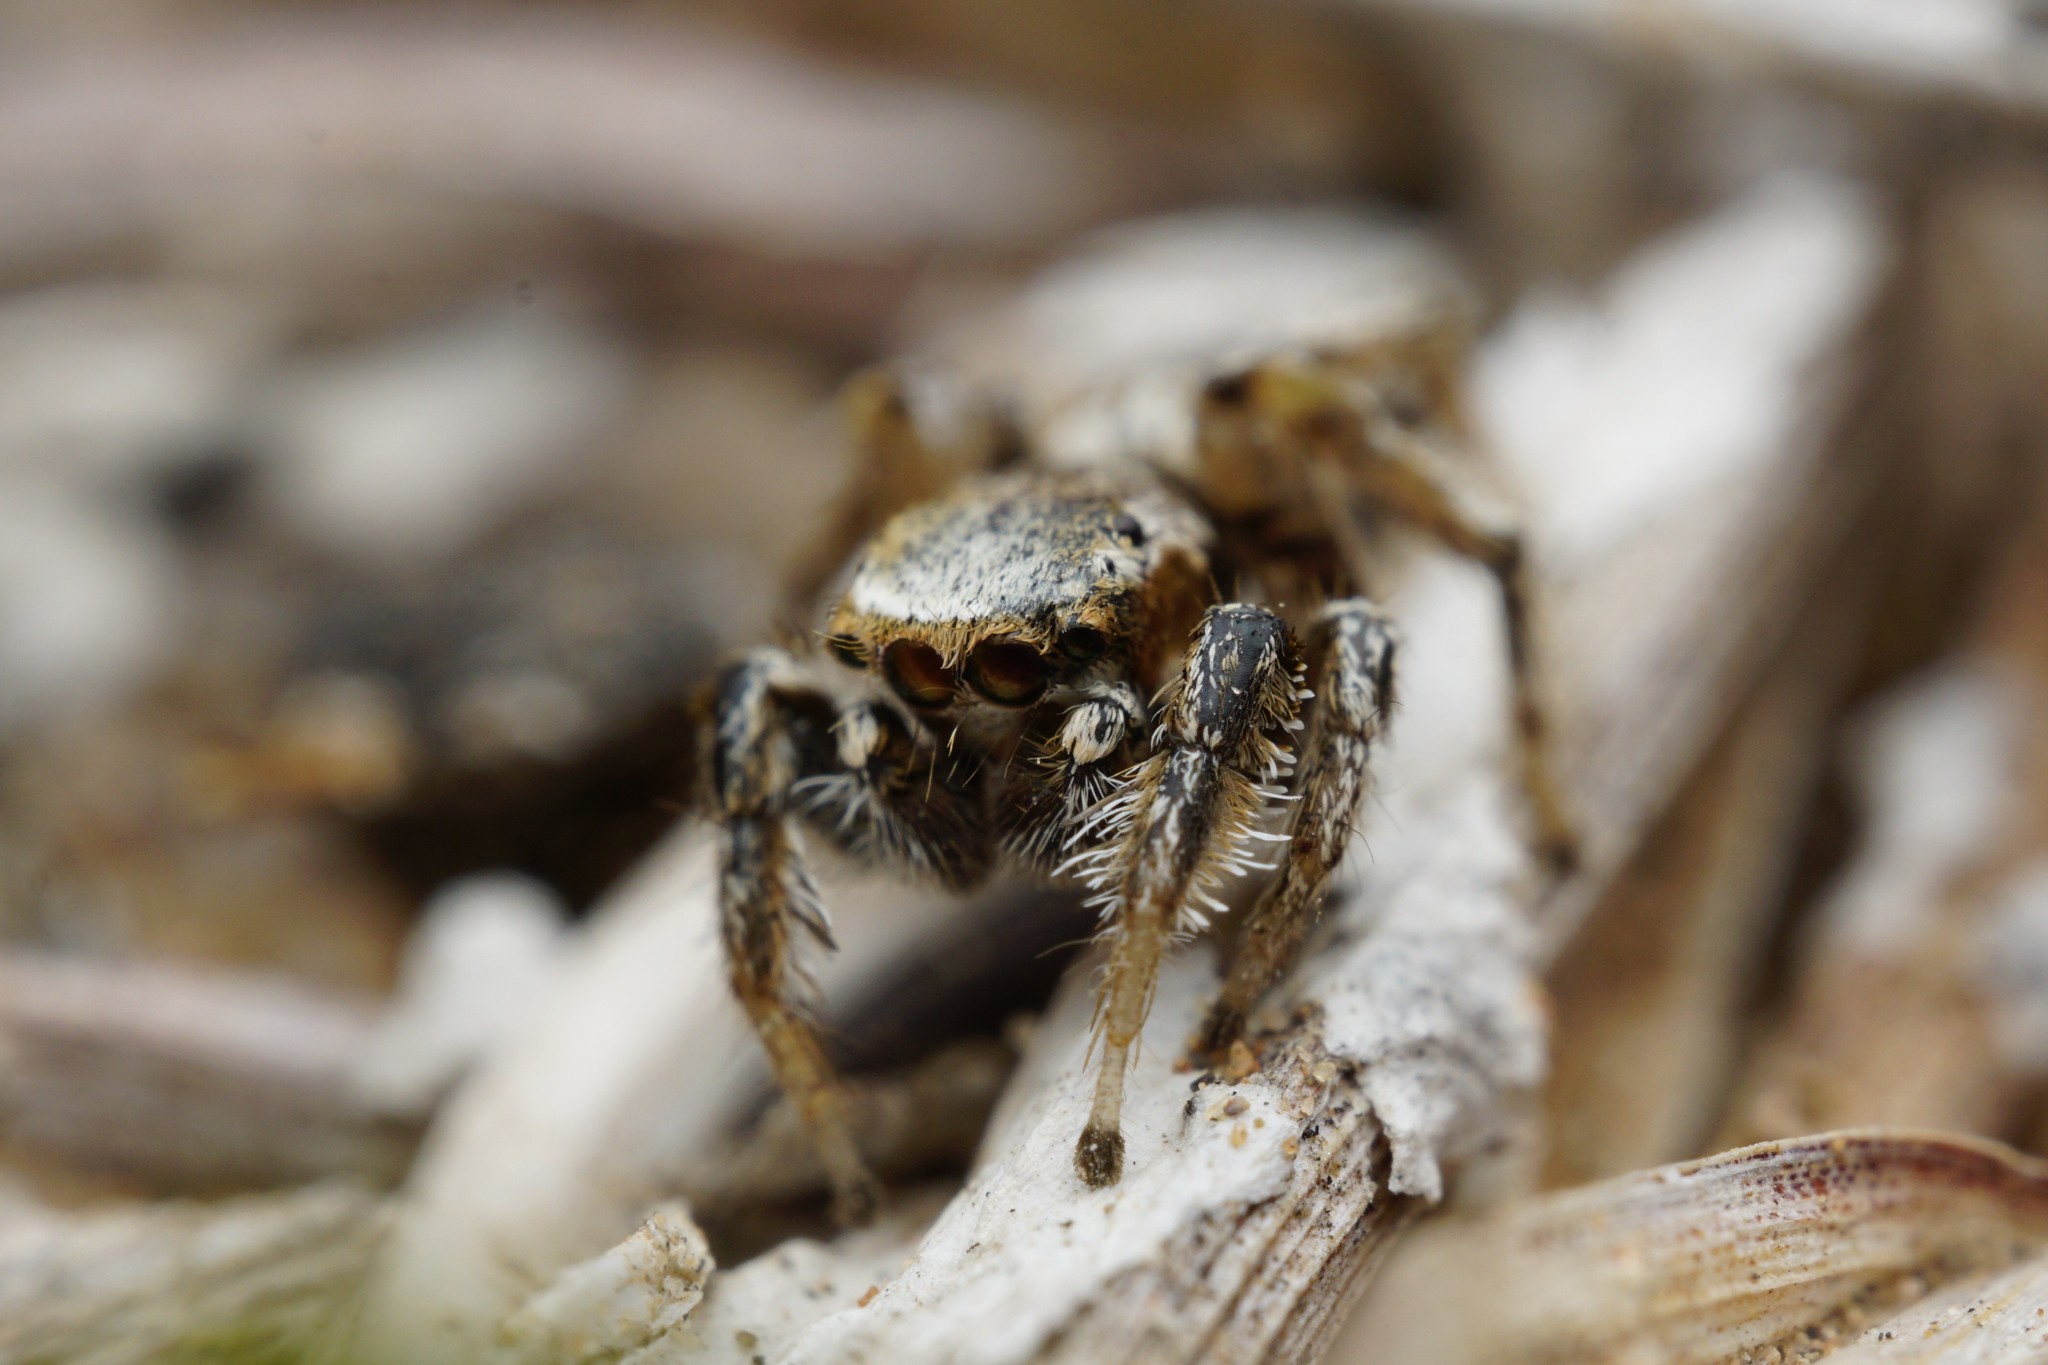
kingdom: Animalia
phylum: Arthropoda
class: Arachnida
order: Araneae
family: Salticidae
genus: Habronattus
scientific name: Habronattus formosus
